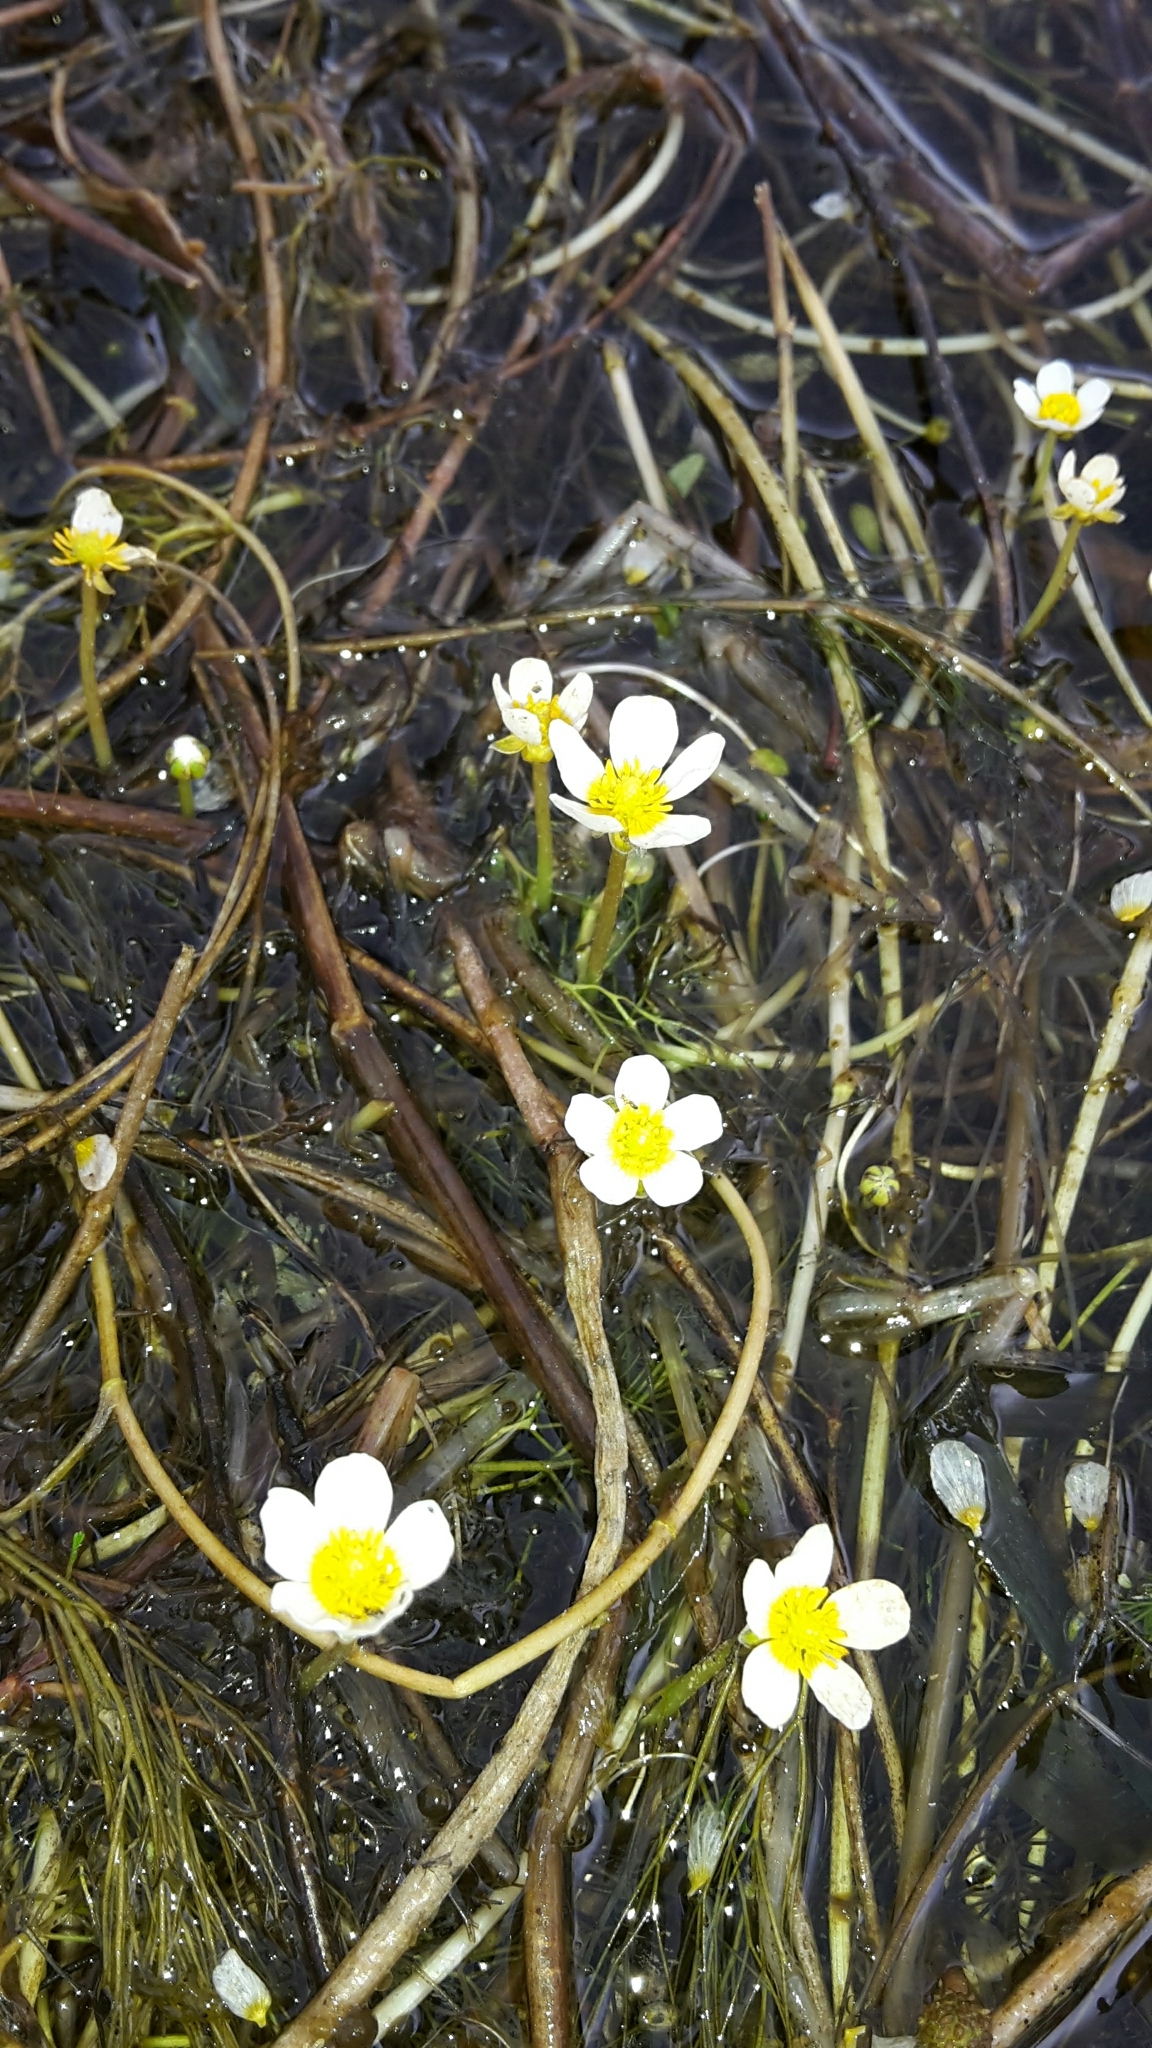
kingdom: Plantae
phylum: Tracheophyta
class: Magnoliopsida
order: Ranunculales
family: Ranunculaceae
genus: Ranunculus
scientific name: Ranunculus trichophyllus
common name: Thread-leaved water-crowfoot
